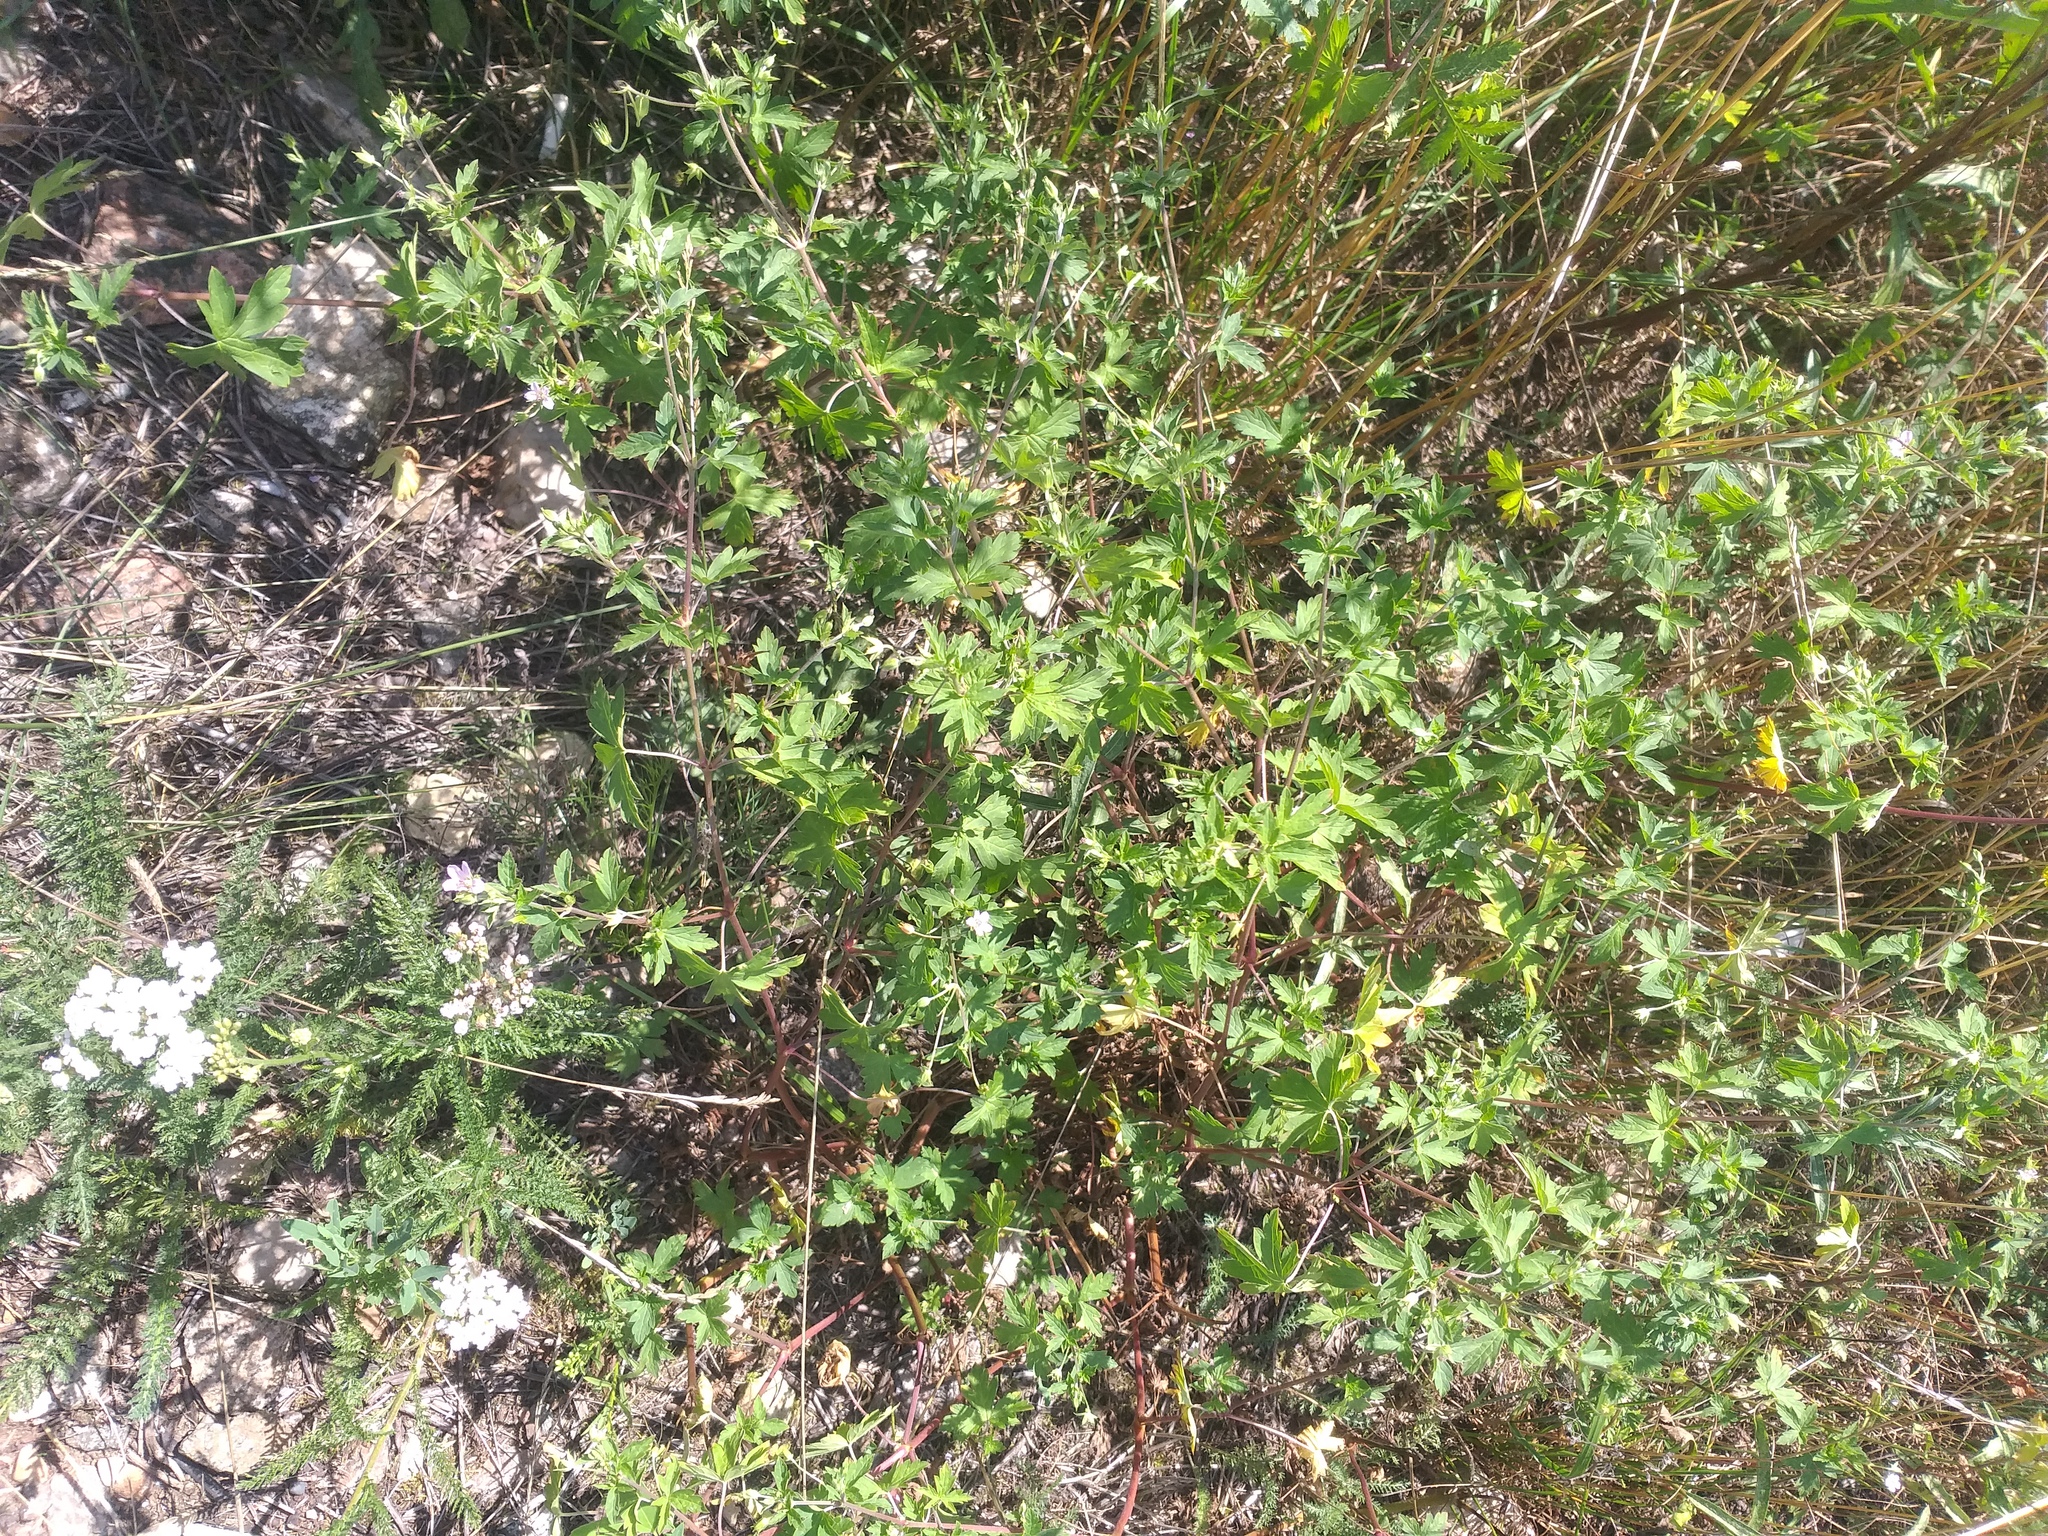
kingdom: Plantae
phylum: Tracheophyta
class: Magnoliopsida
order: Geraniales
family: Geraniaceae
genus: Geranium
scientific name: Geranium sibiricum
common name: Siberian crane's-bill
